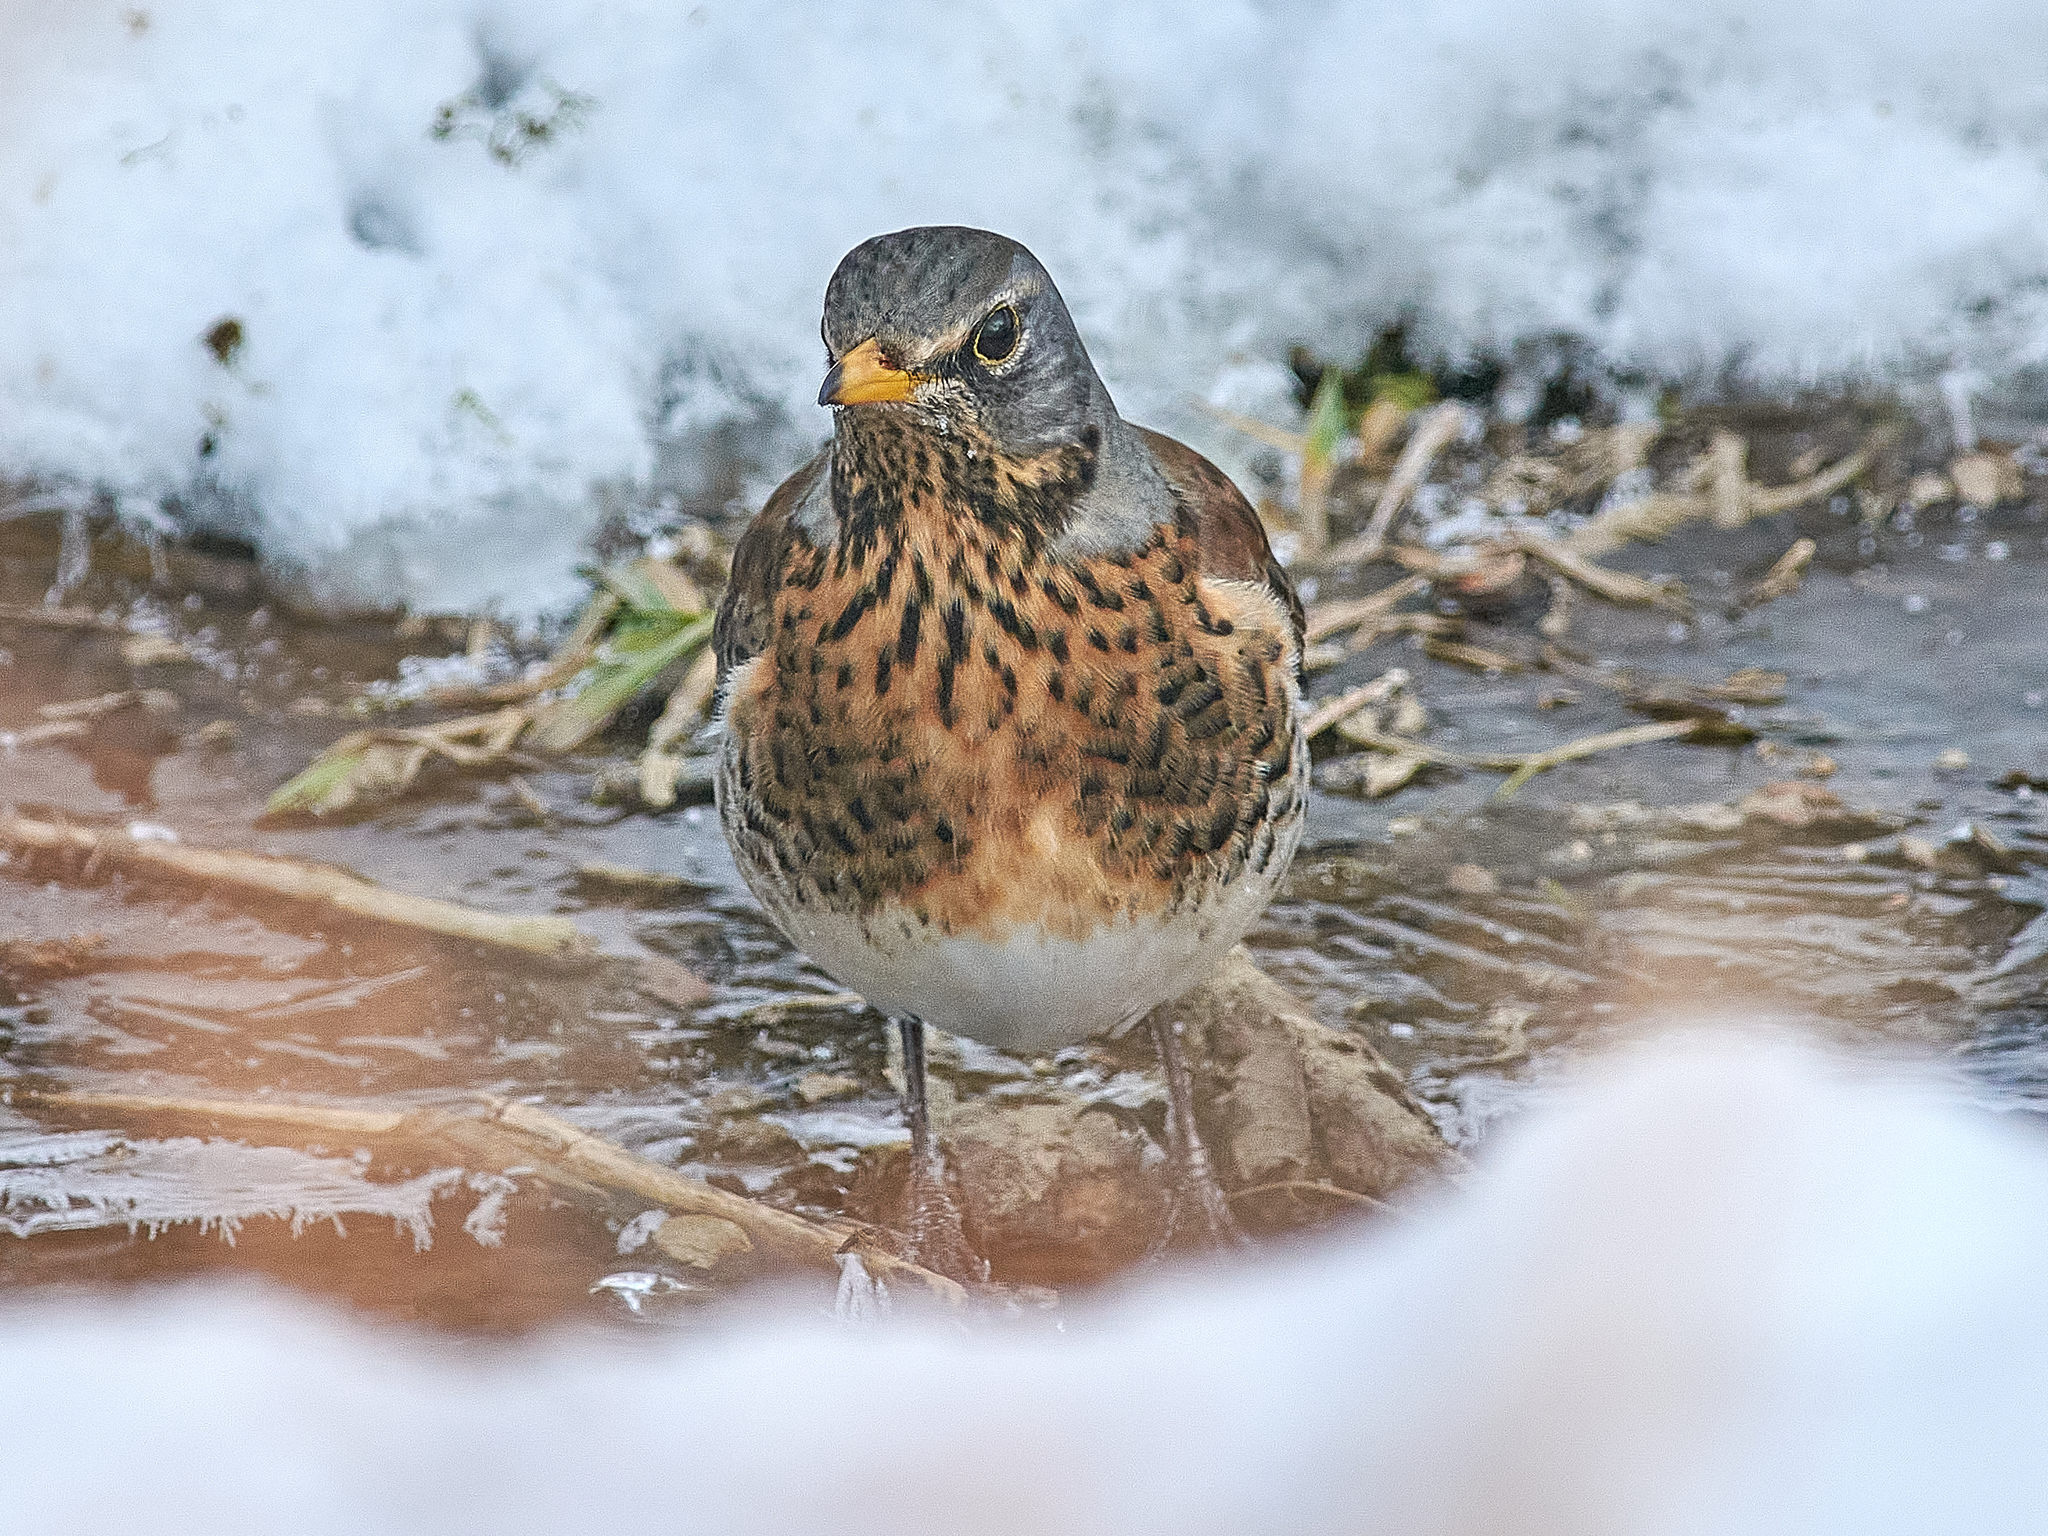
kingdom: Animalia
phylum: Chordata
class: Aves
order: Passeriformes
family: Turdidae
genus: Turdus
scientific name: Turdus pilaris
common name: Fieldfare
